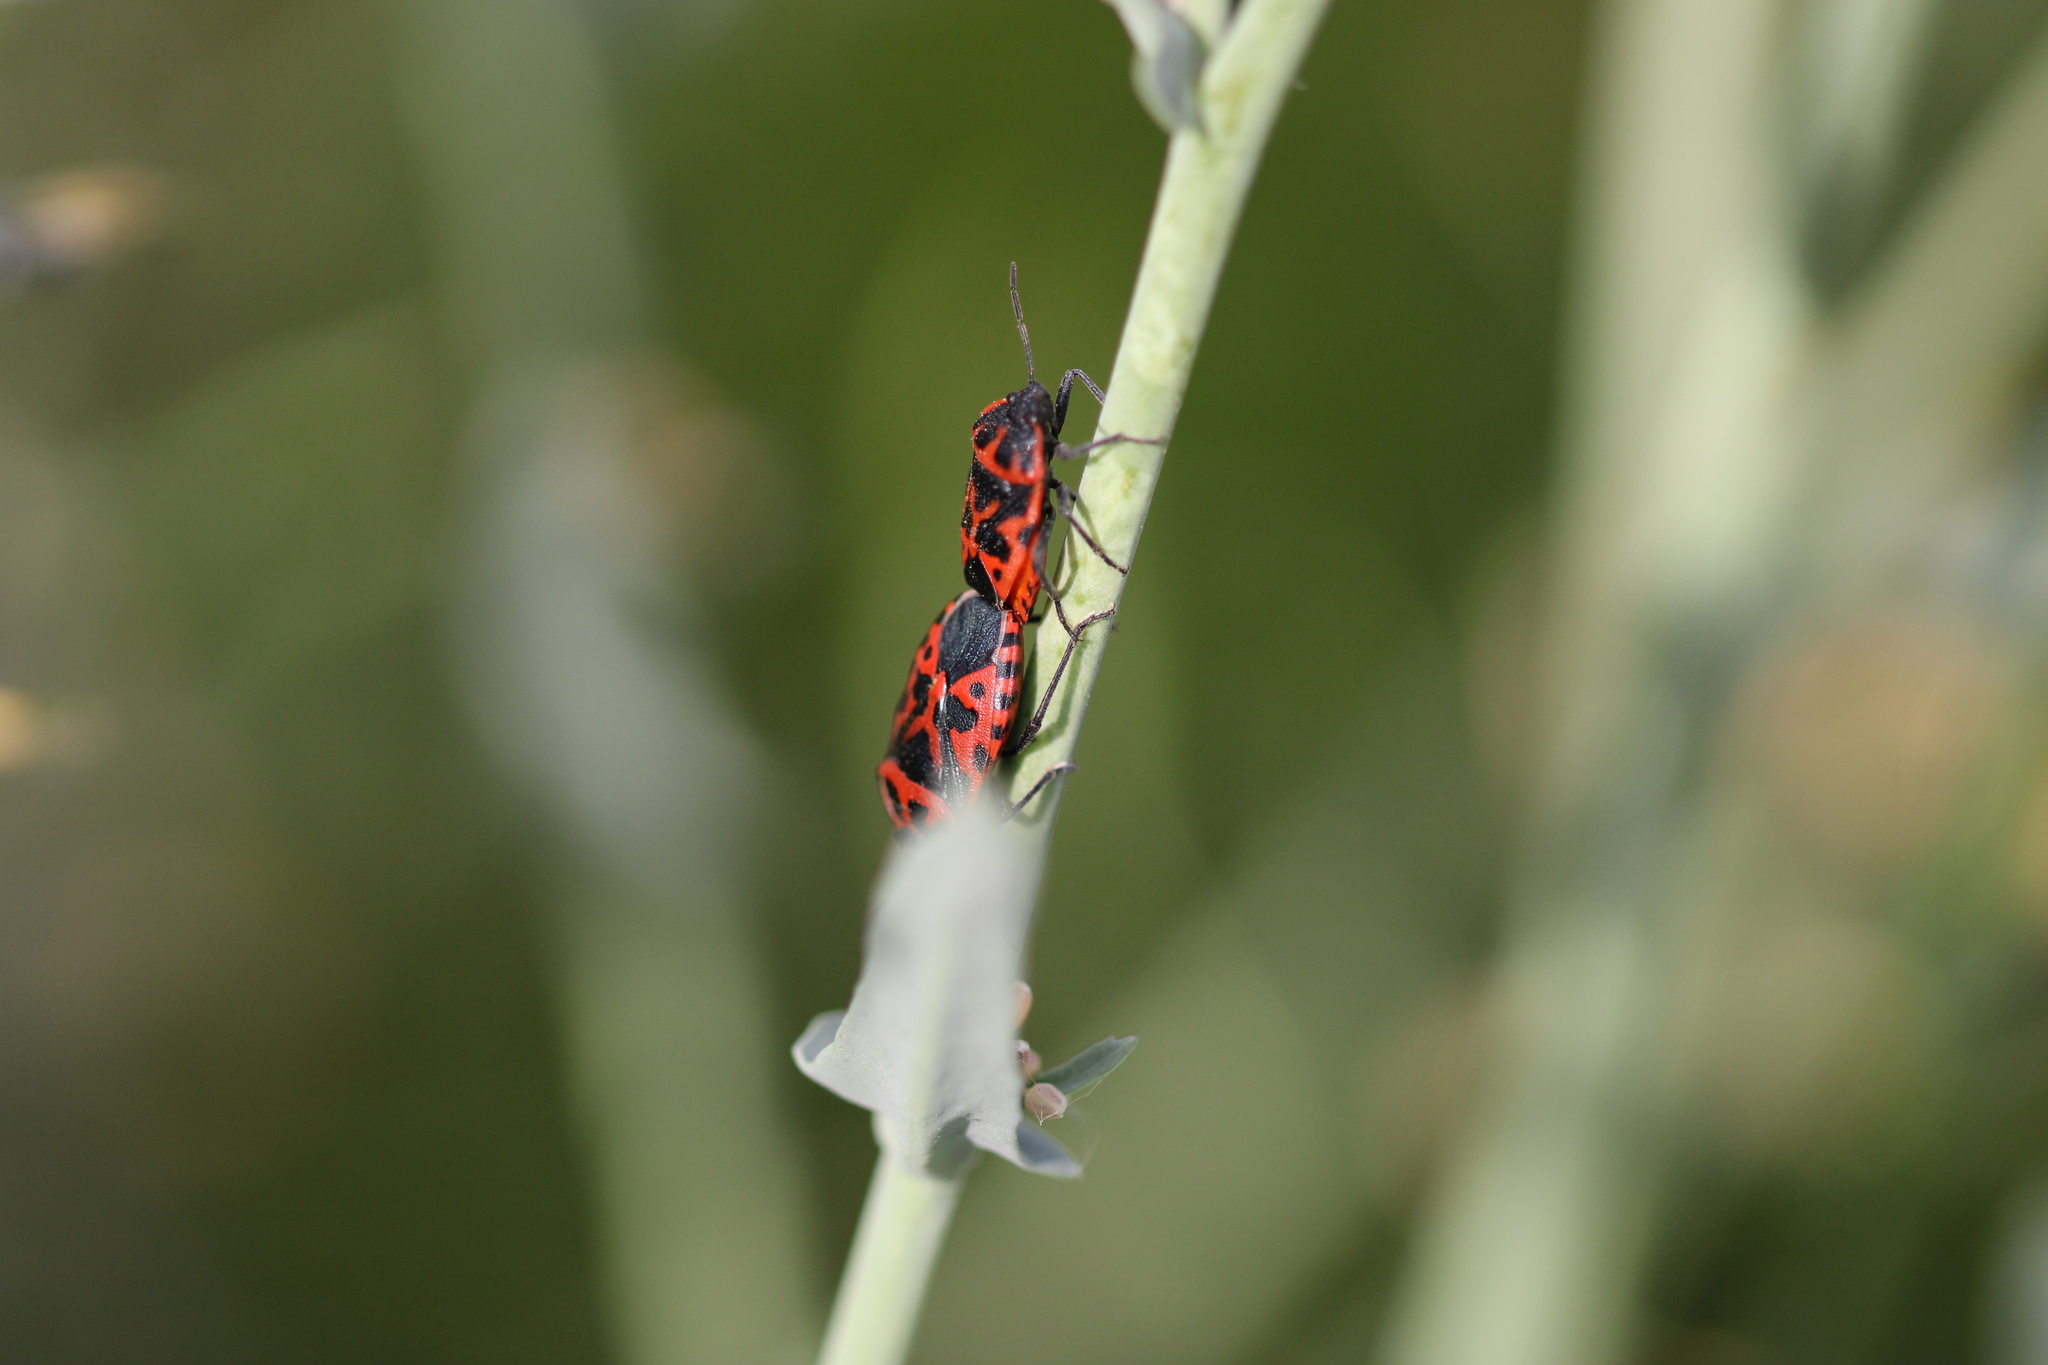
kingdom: Animalia
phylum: Arthropoda
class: Insecta
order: Hemiptera
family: Pentatomidae
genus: Eurydema
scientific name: Eurydema ventralis
